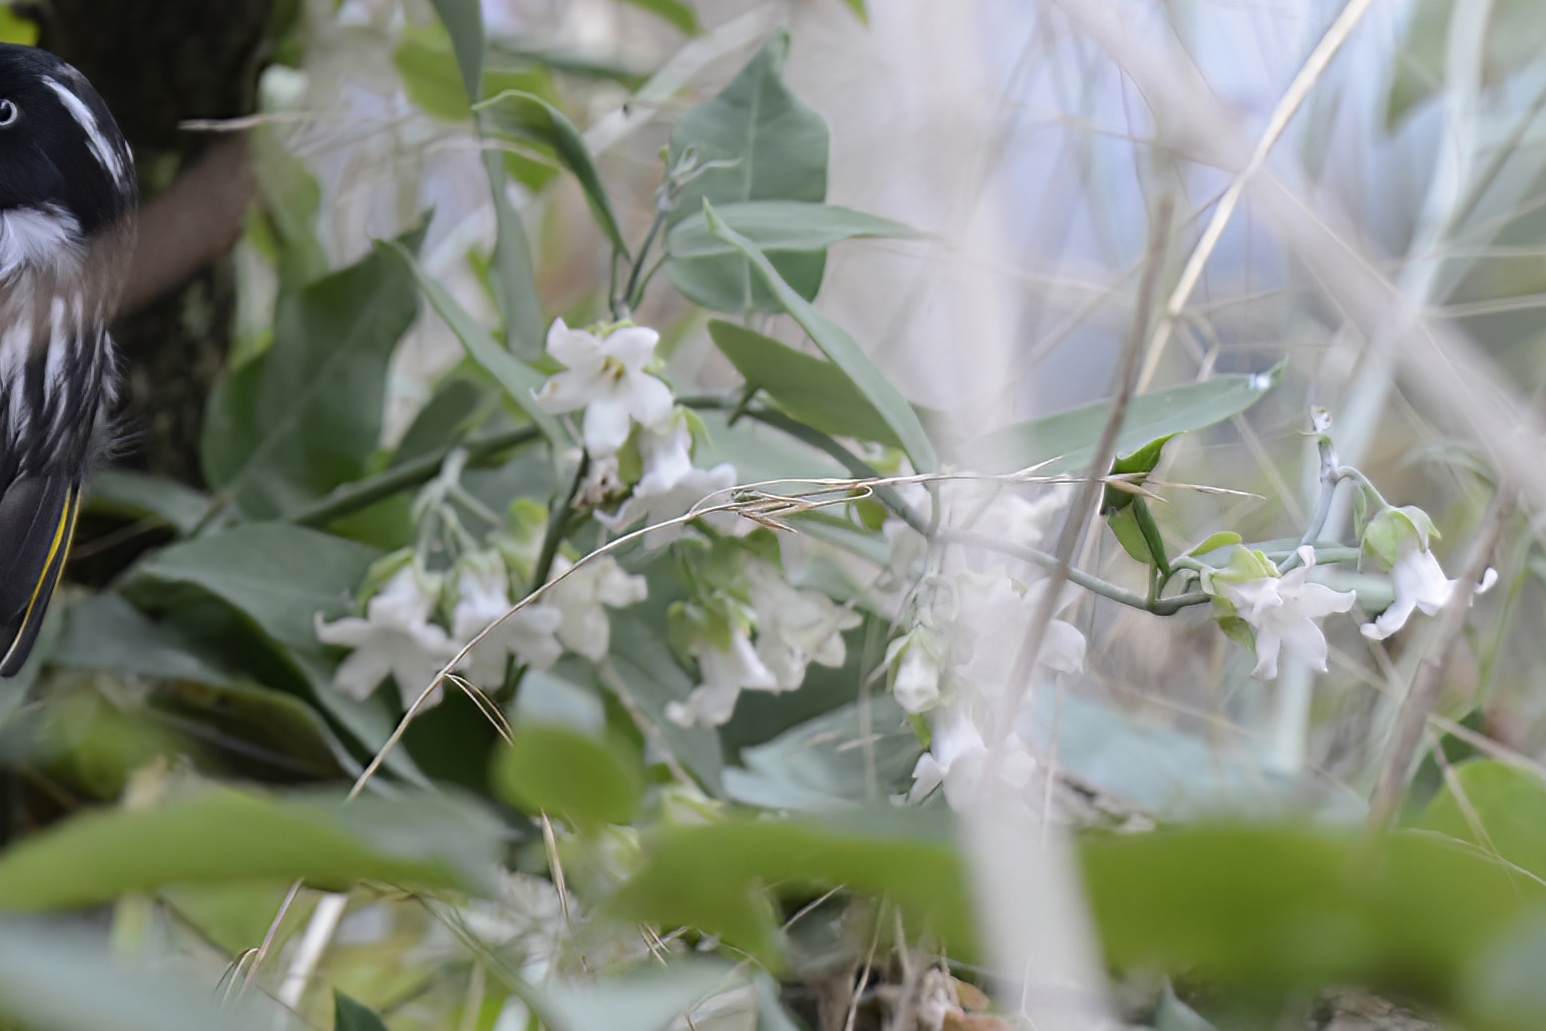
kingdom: Plantae
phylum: Tracheophyta
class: Magnoliopsida
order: Gentianales
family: Apocynaceae
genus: Araujia
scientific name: Araujia sericifera
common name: White bladderflower
